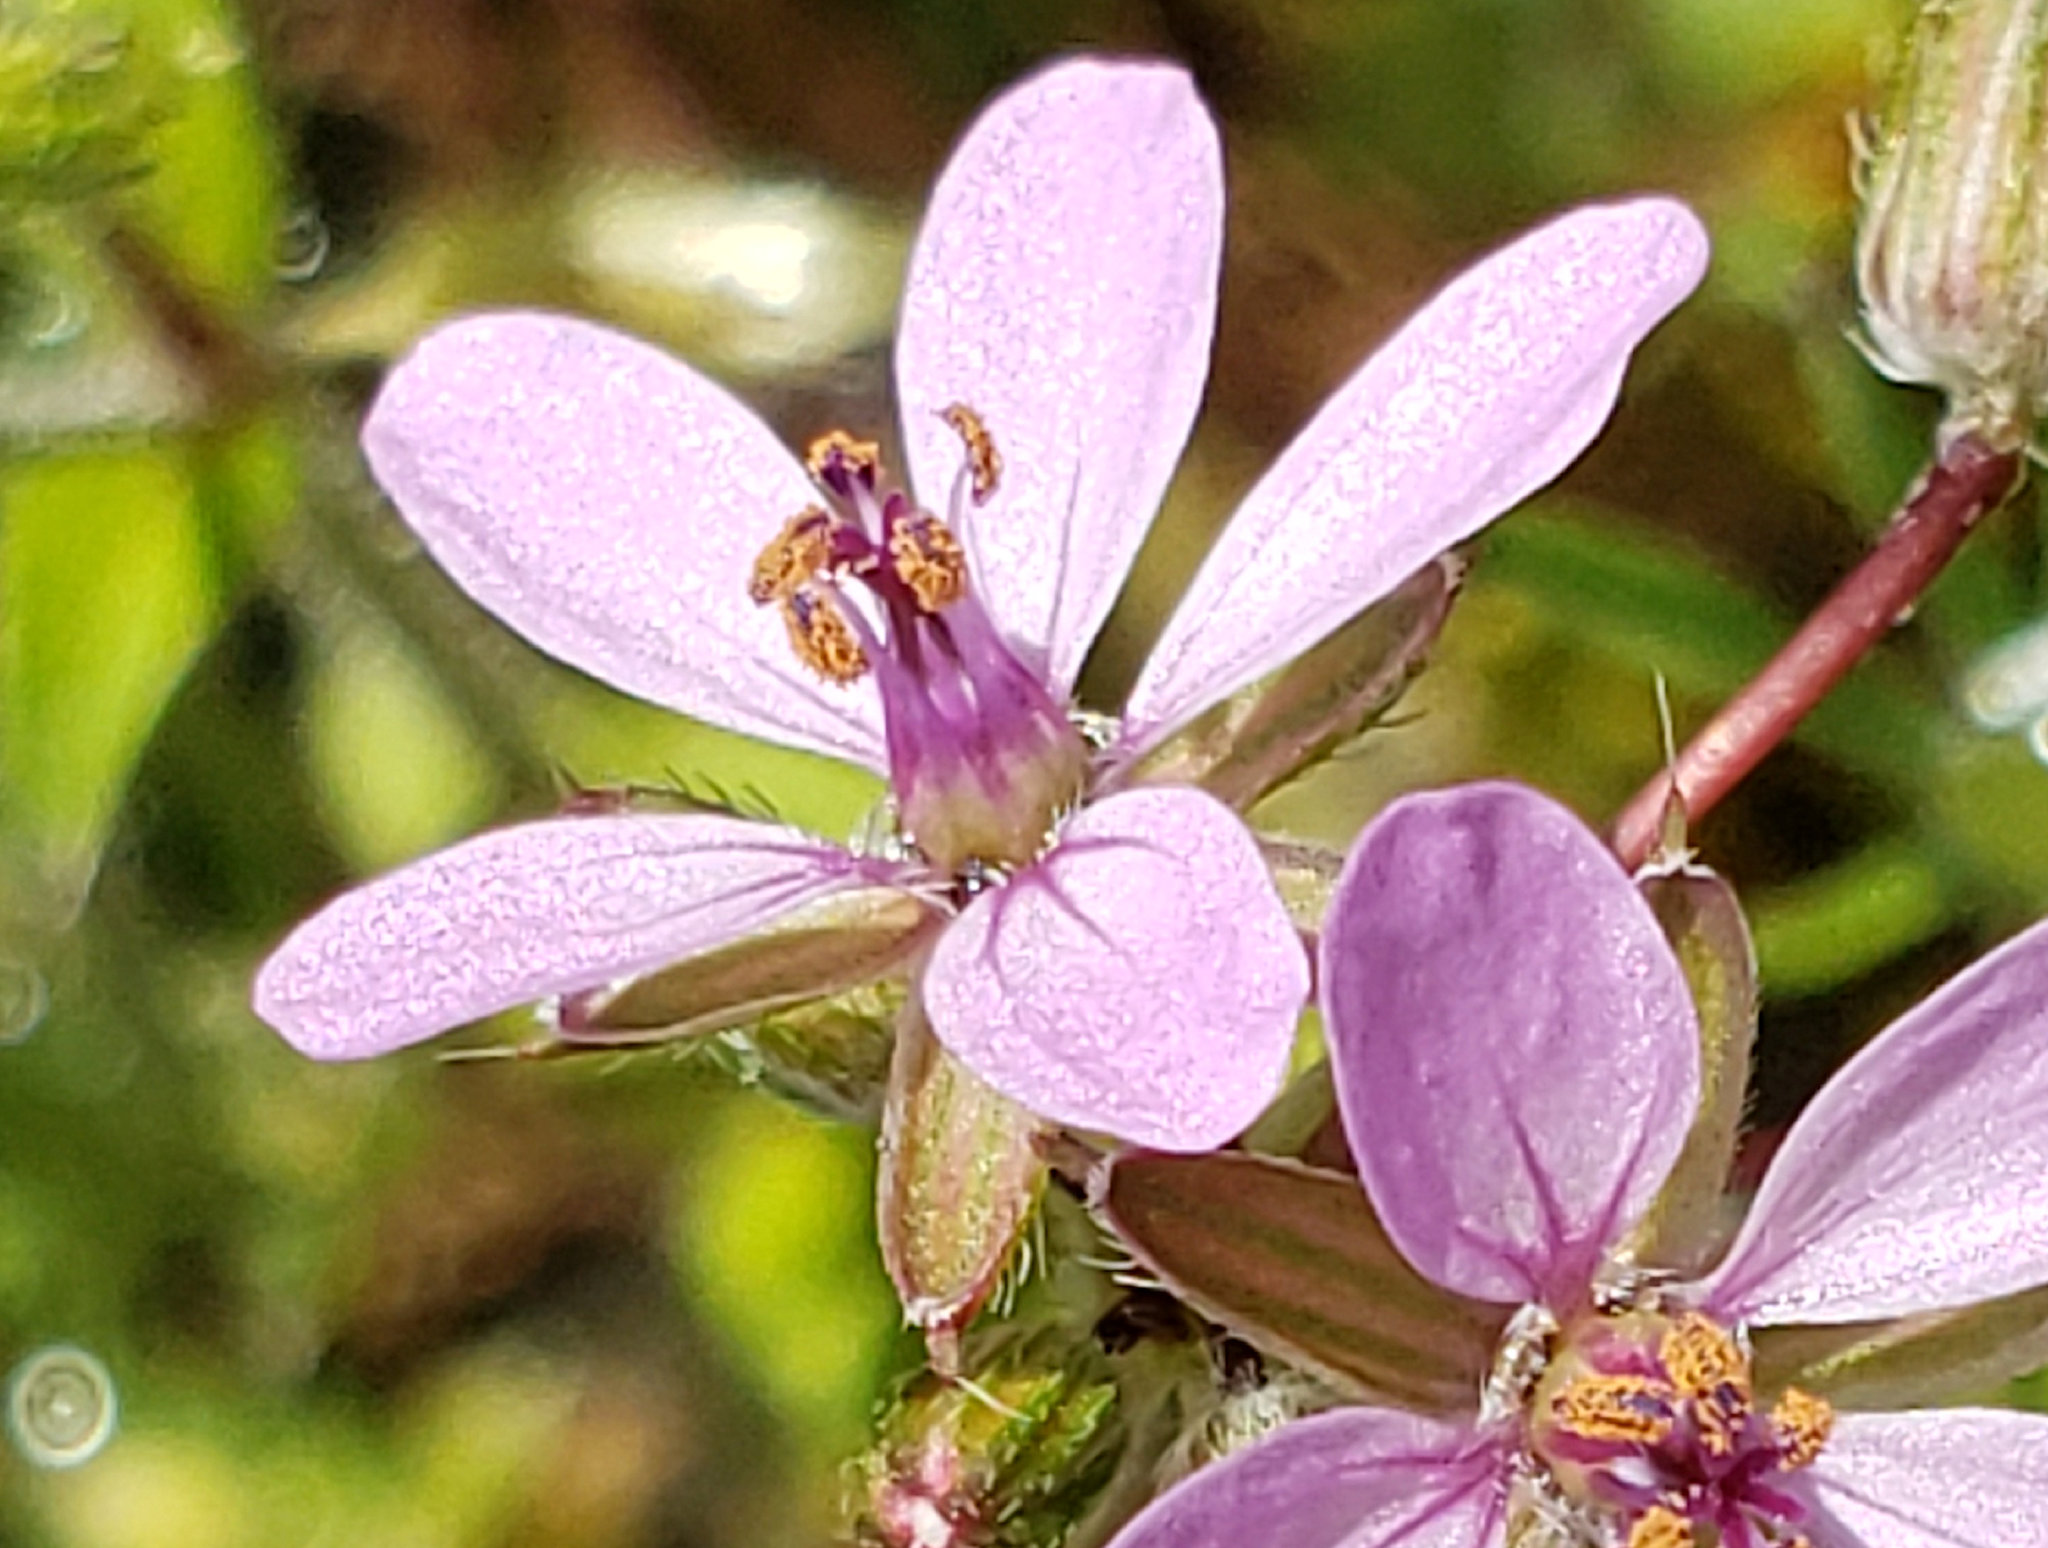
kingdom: Plantae
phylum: Tracheophyta
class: Magnoliopsida
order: Geraniales
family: Geraniaceae
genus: Erodium
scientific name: Erodium cicutarium
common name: Common stork's-bill
